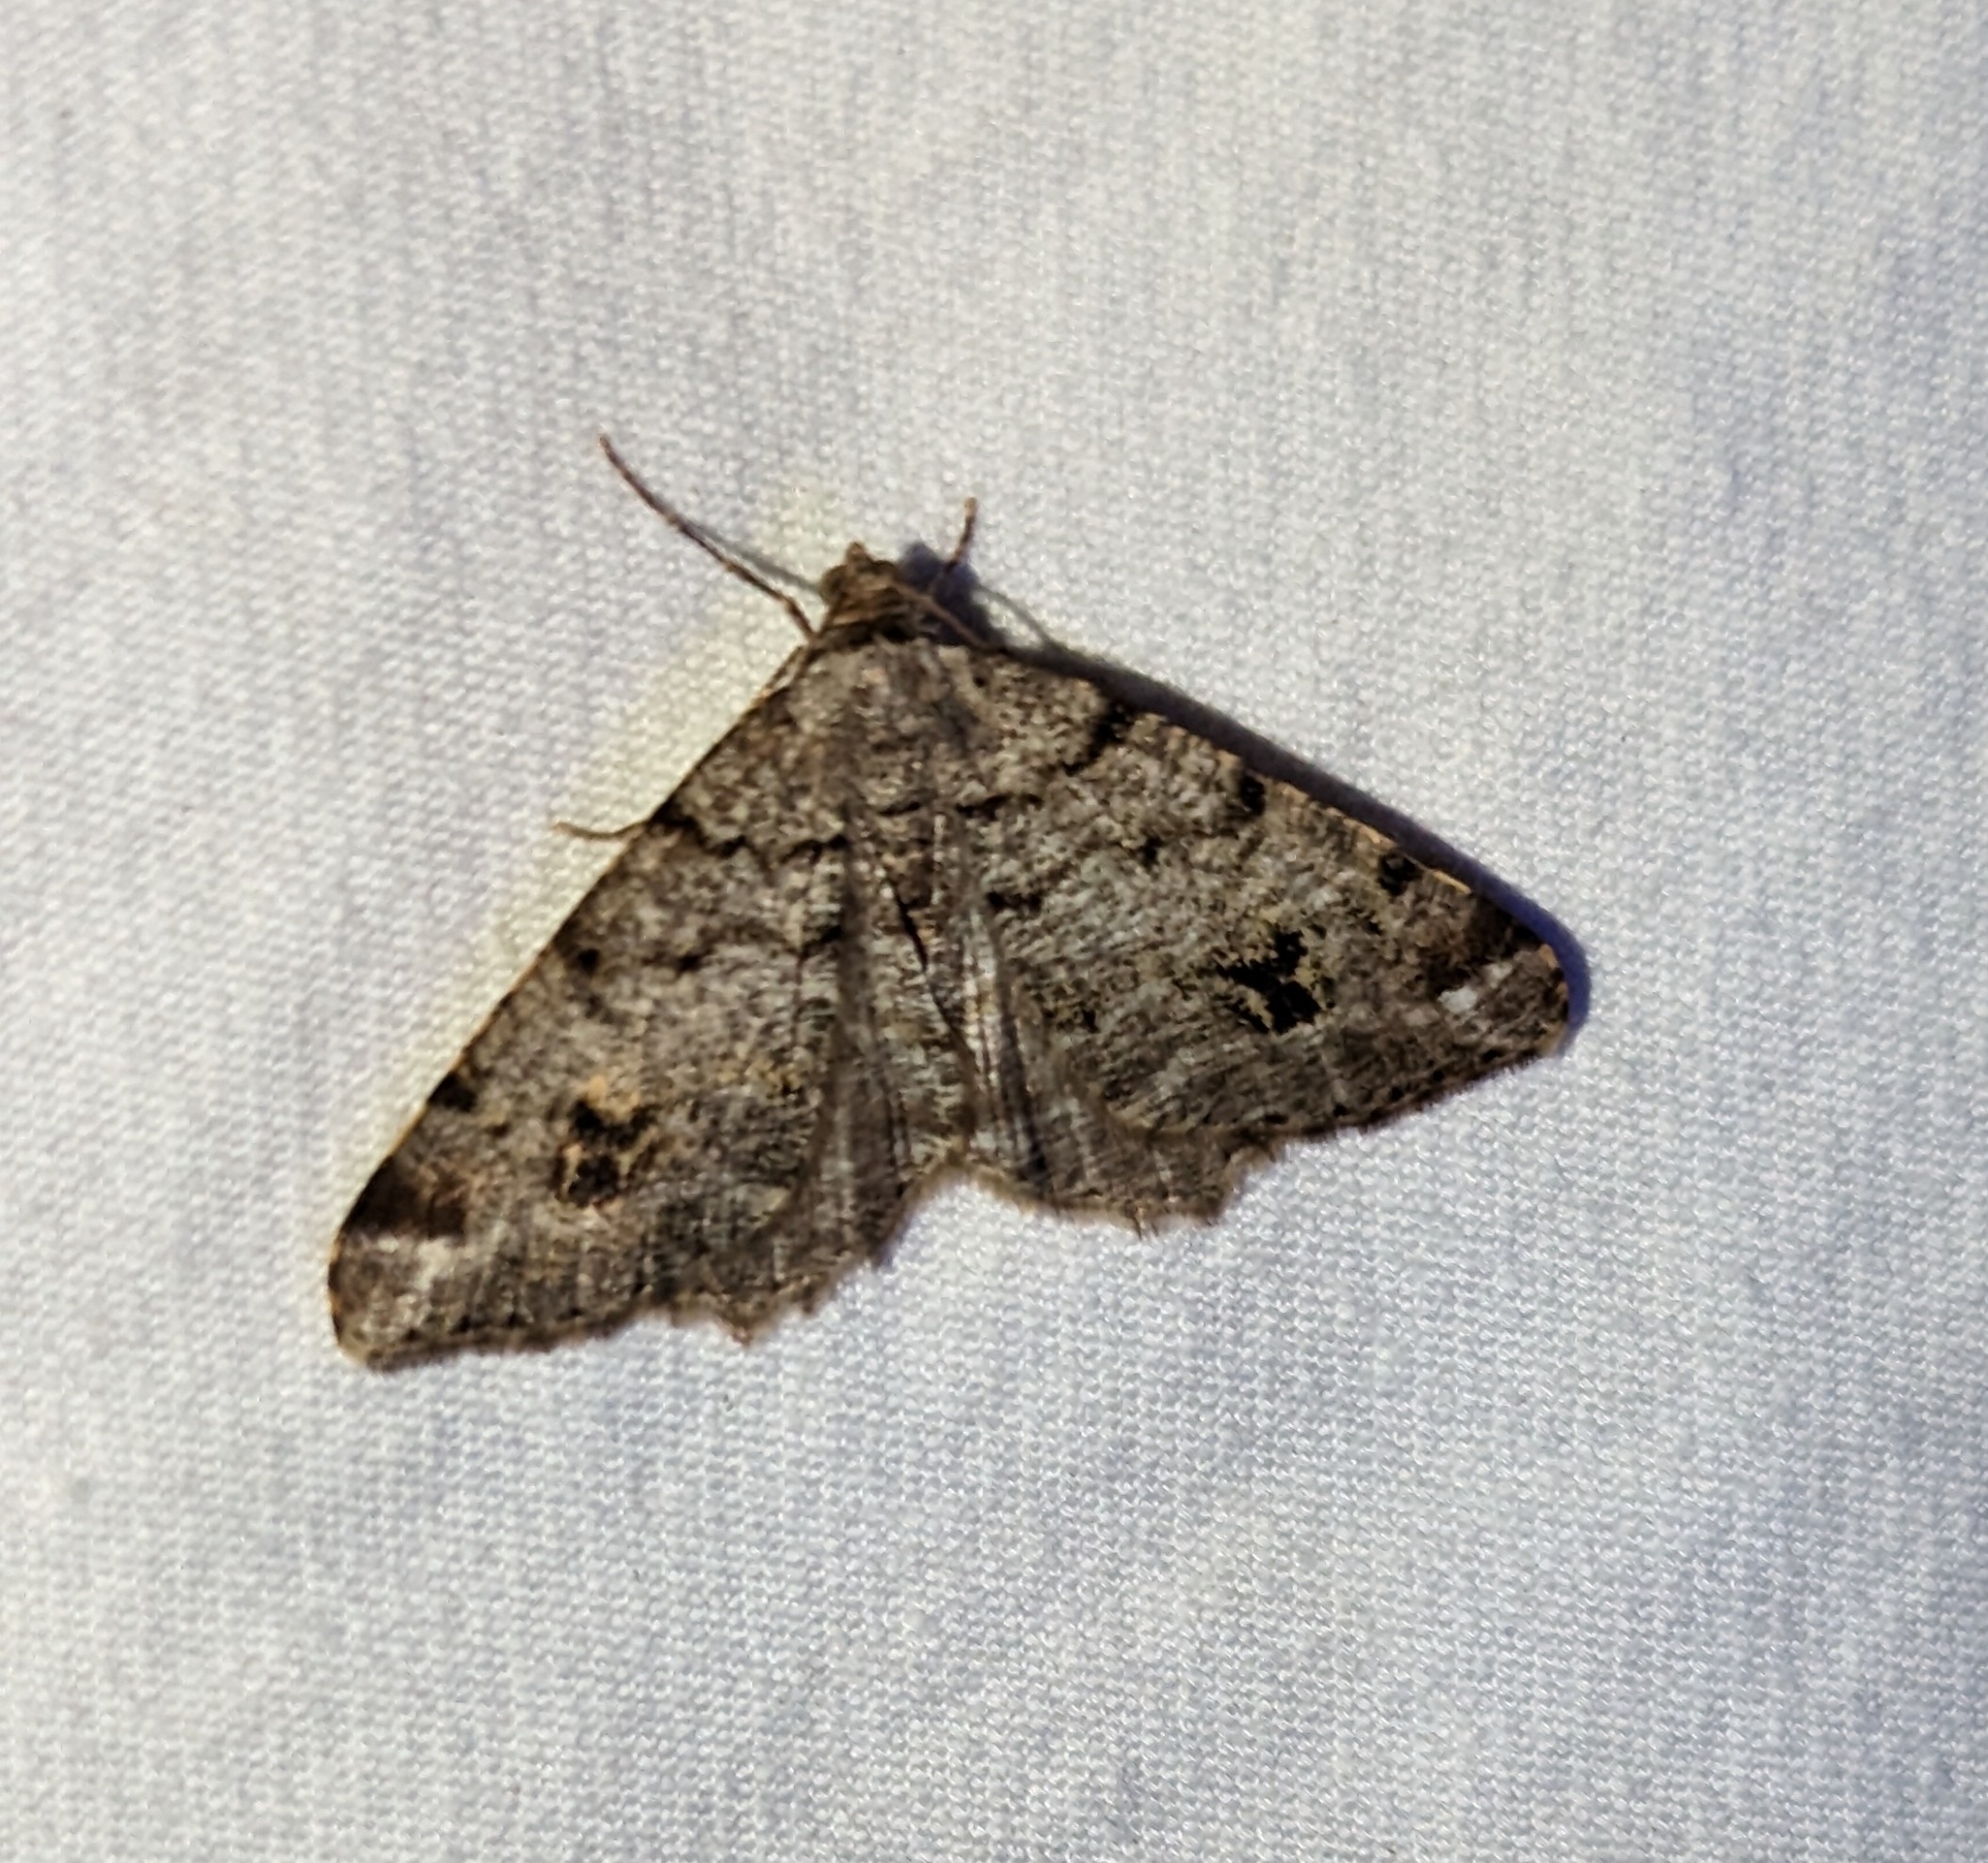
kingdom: Animalia
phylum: Arthropoda
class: Insecta
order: Lepidoptera
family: Geometridae
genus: Macaria
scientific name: Macaria signaria
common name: Dusky peacock
